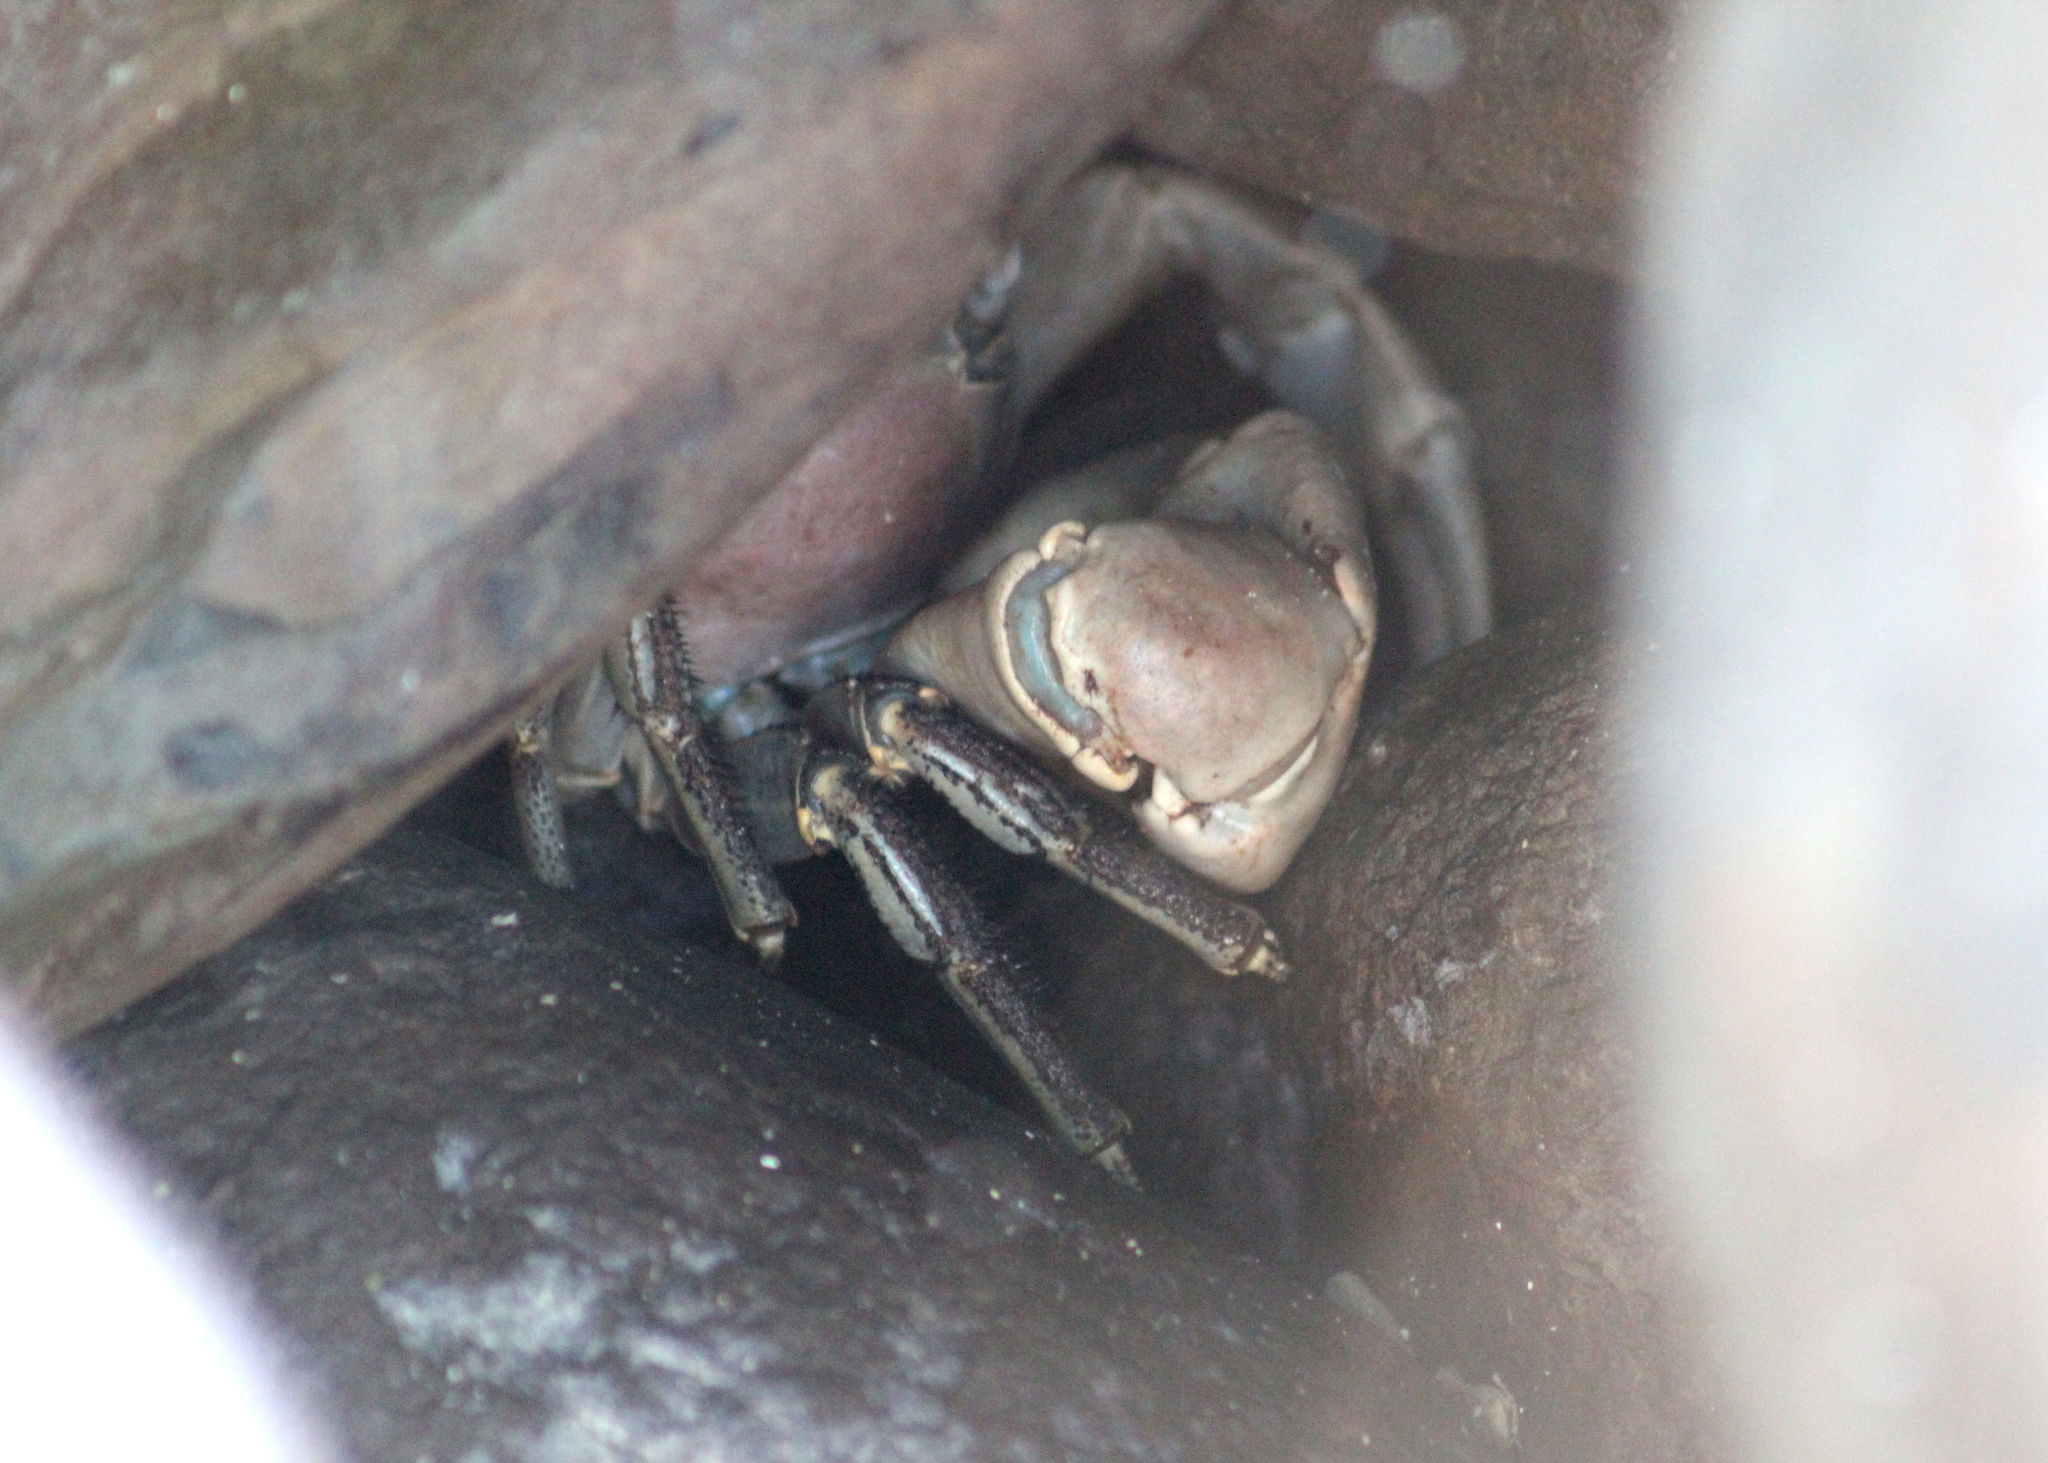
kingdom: Animalia
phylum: Arthropoda
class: Malacostraca
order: Decapoda
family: Gecarcinidae
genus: Cardisoma
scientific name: Cardisoma carnifex
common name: Brown land crab
